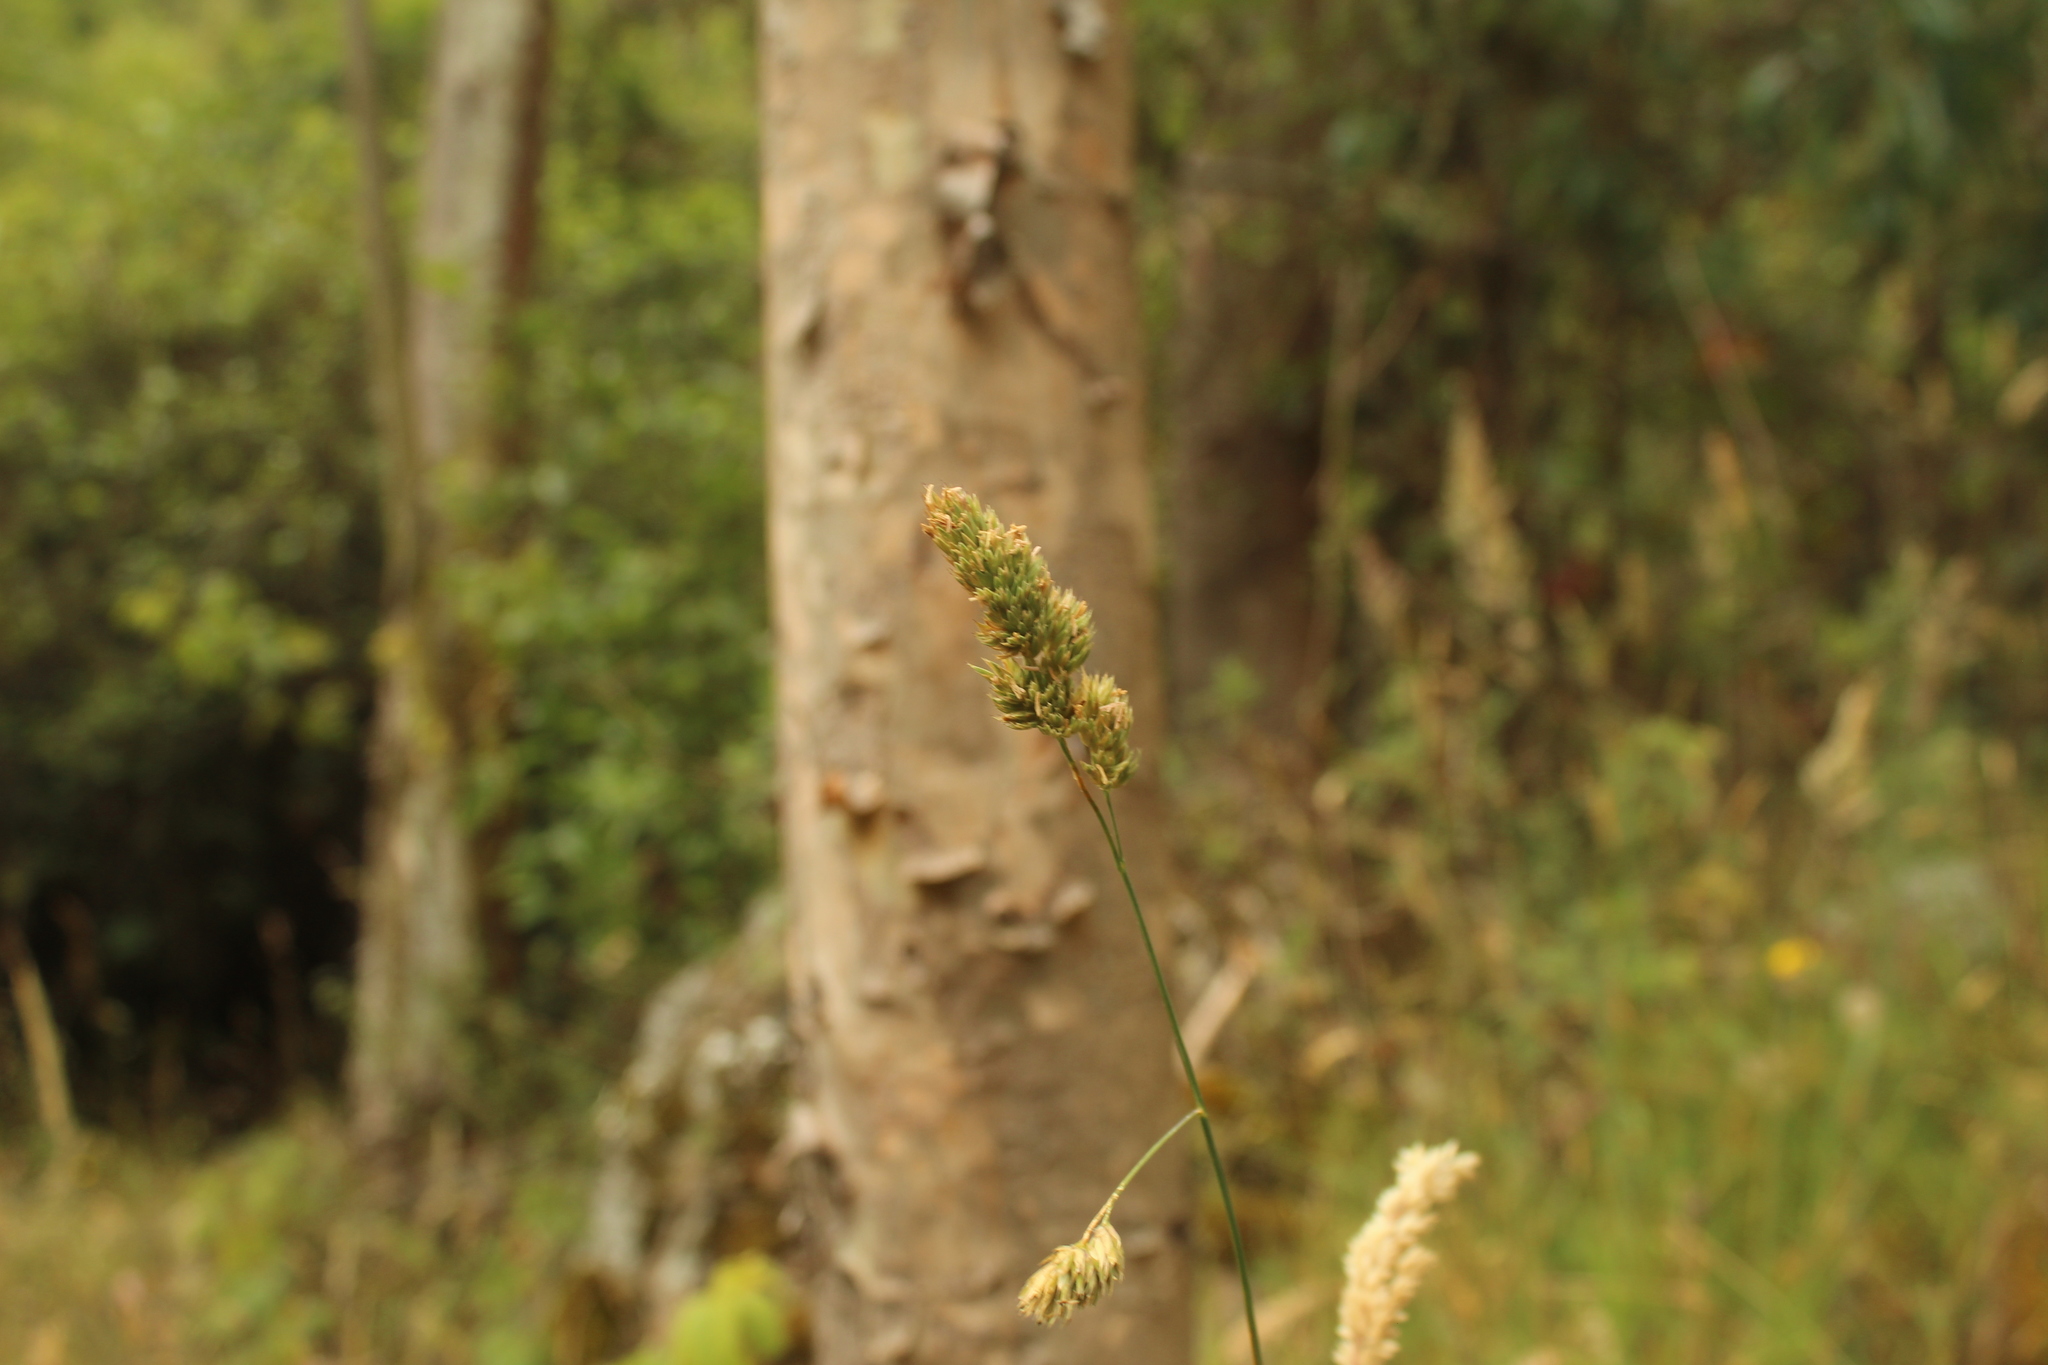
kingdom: Plantae
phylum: Tracheophyta
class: Liliopsida
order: Poales
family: Poaceae
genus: Dactylis
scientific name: Dactylis glomerata
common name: Orchardgrass
